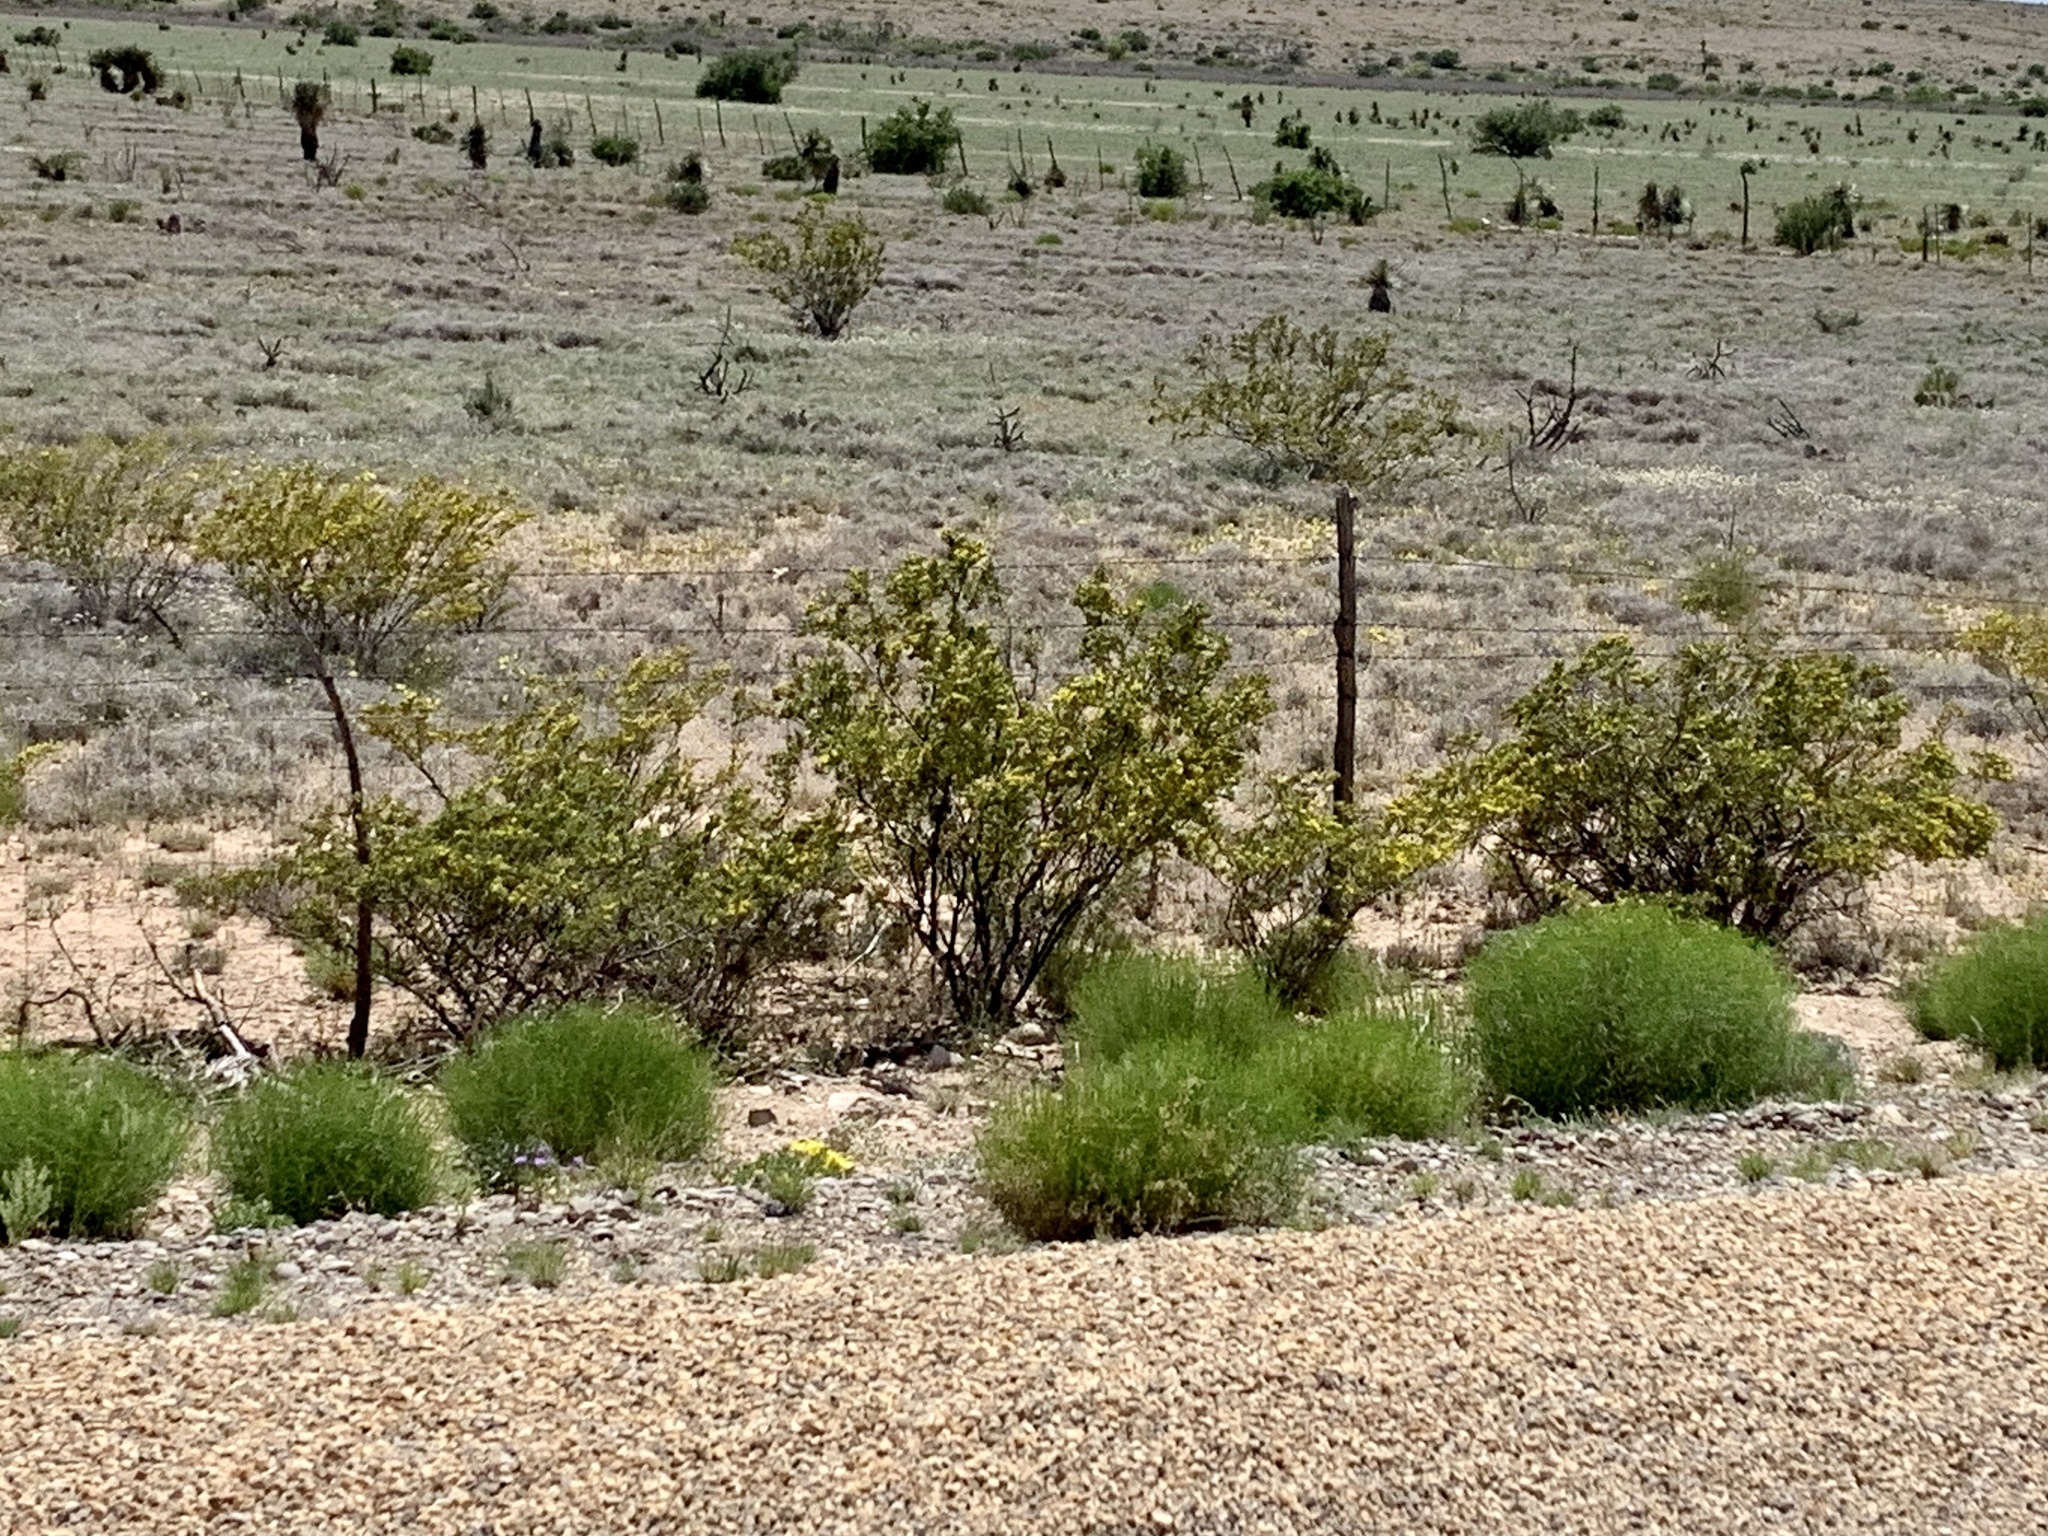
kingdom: Plantae
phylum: Tracheophyta
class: Magnoliopsida
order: Zygophyllales
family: Zygophyllaceae
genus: Larrea
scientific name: Larrea tridentata
